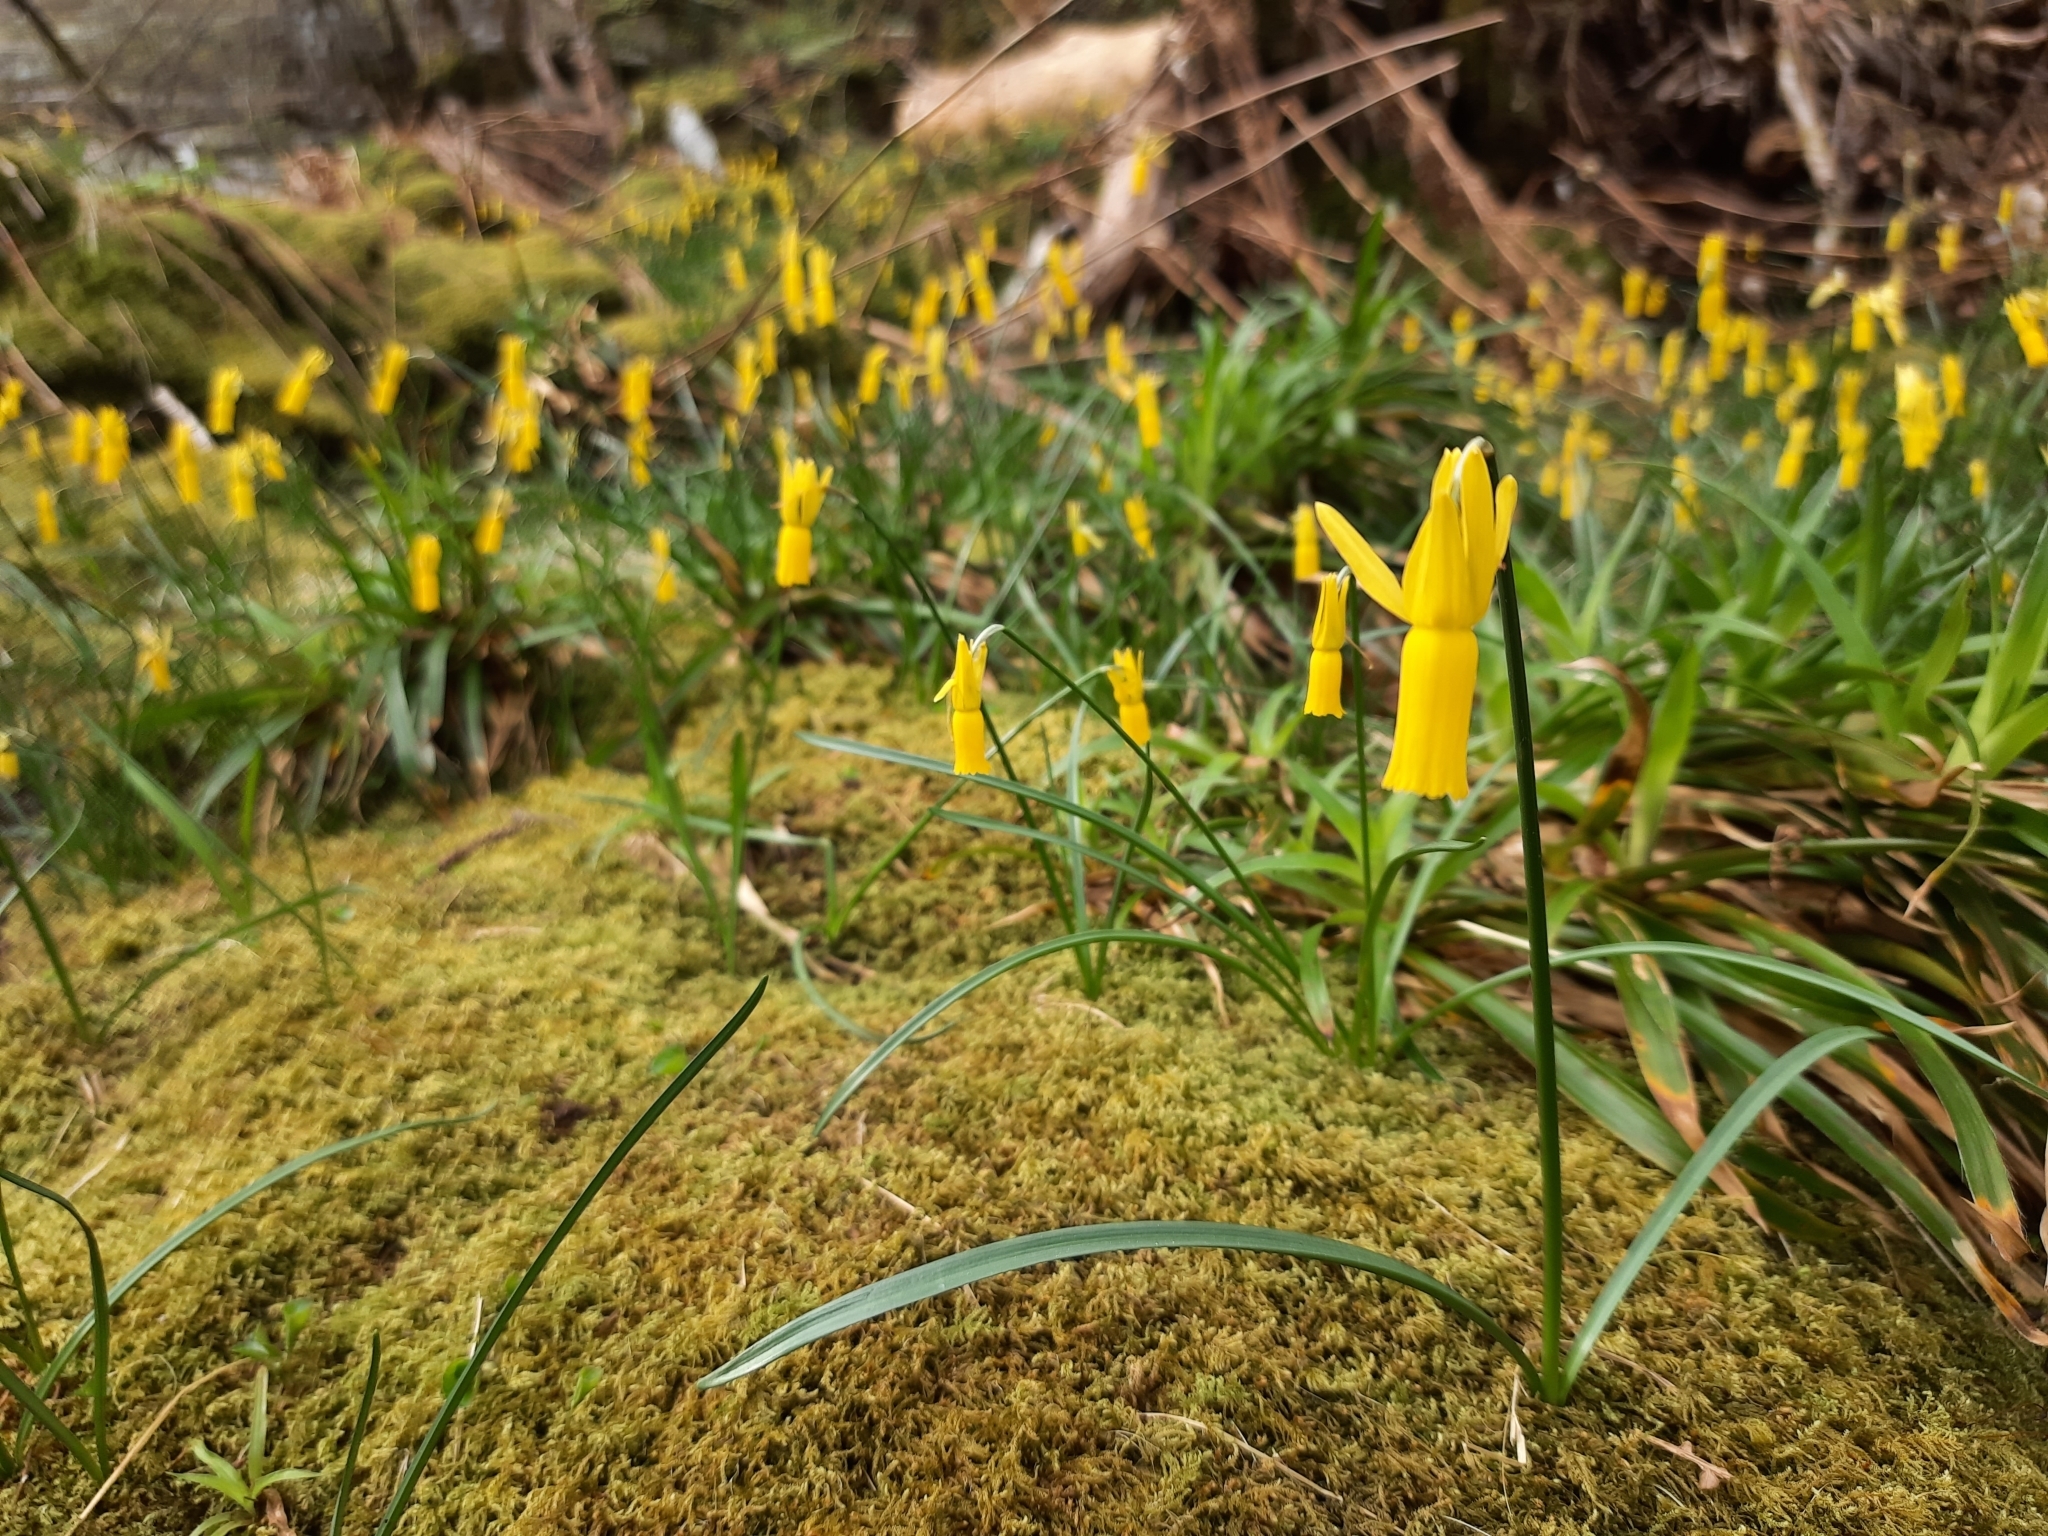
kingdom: Plantae
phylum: Tracheophyta
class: Liliopsida
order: Asparagales
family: Amaryllidaceae
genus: Narcissus
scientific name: Narcissus cyclamineus
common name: Cyclamen-flowered daffodil
